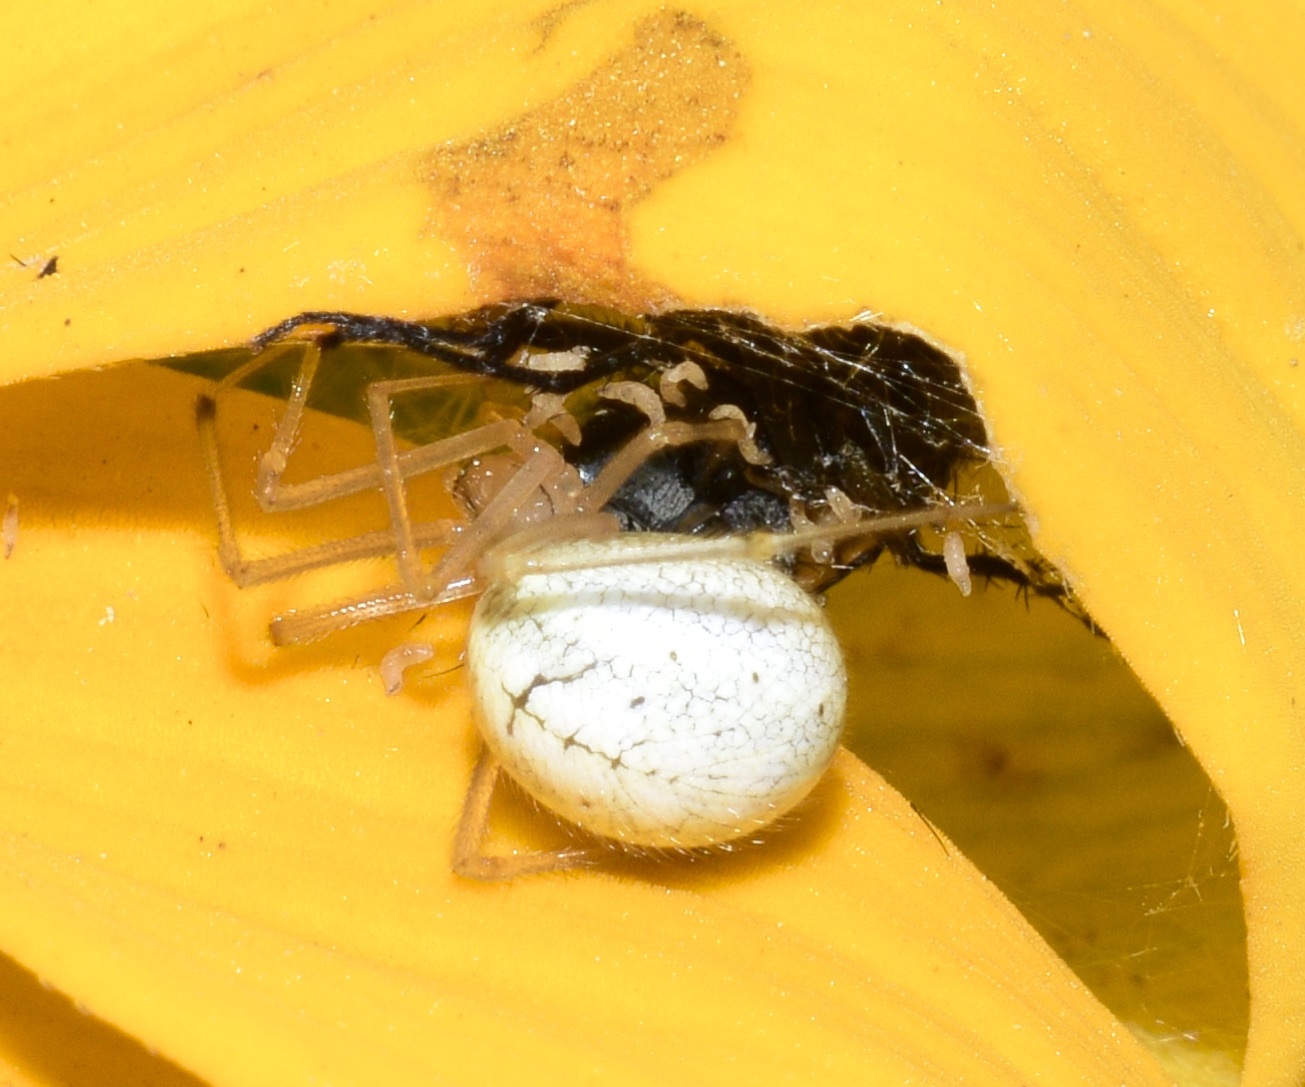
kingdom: Animalia
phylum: Arthropoda
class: Arachnida
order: Araneae
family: Theridiidae
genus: Enoplognatha
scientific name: Enoplognatha ovata
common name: Common candy-striped spider
